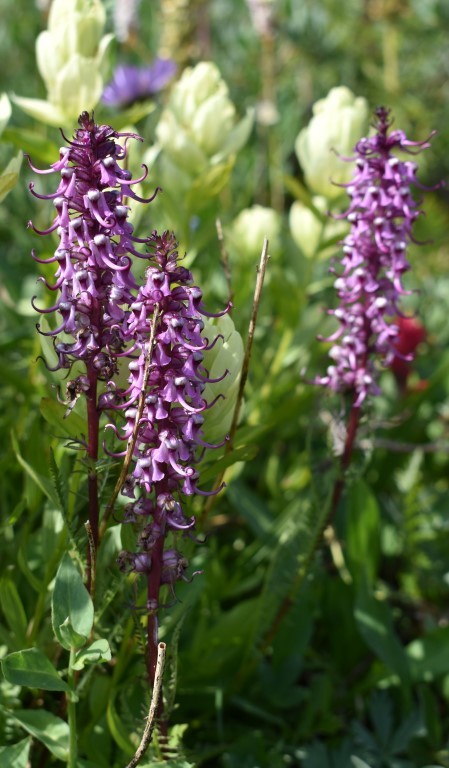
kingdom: Plantae
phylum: Tracheophyta
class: Magnoliopsida
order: Lamiales
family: Orobanchaceae
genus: Pedicularis
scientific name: Pedicularis groenlandica
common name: Elephant's-head
